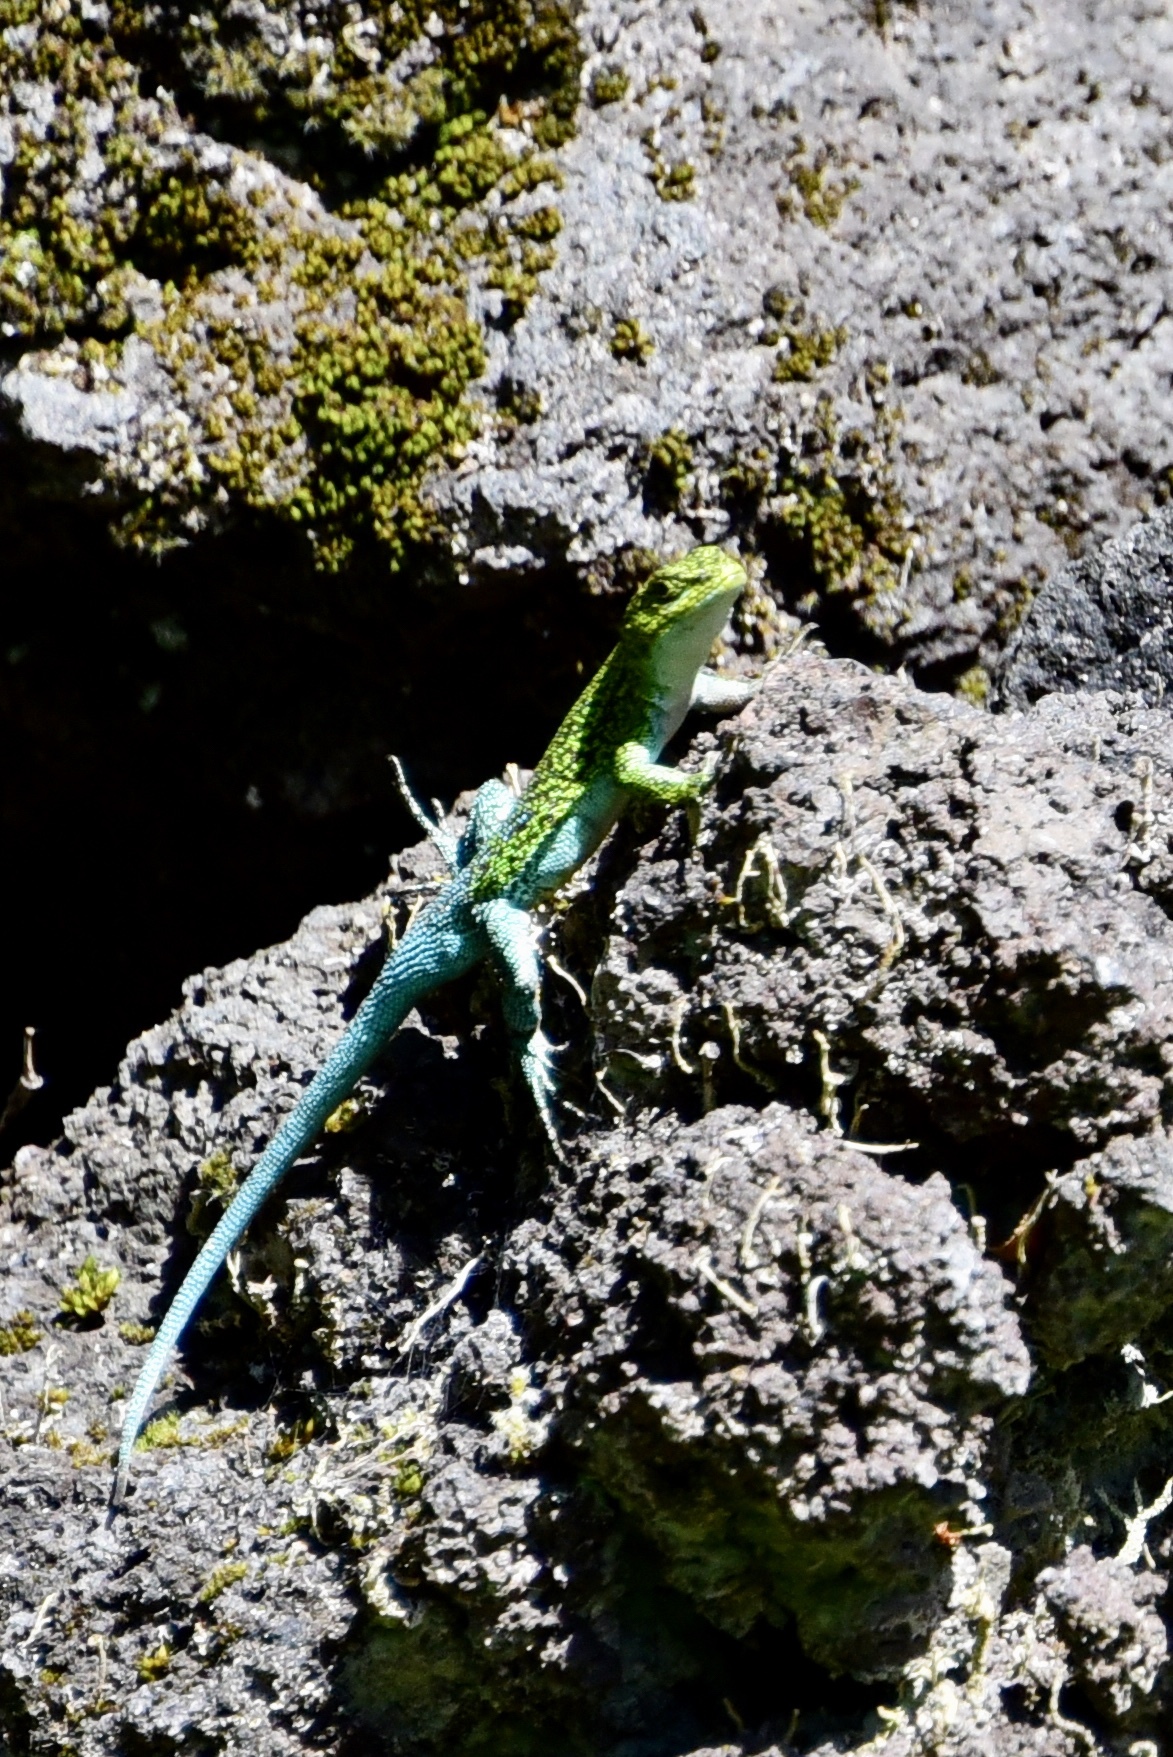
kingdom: Animalia
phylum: Chordata
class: Squamata
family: Liolaemidae
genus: Liolaemus
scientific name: Liolaemus tenuis
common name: Thin tree iguana
